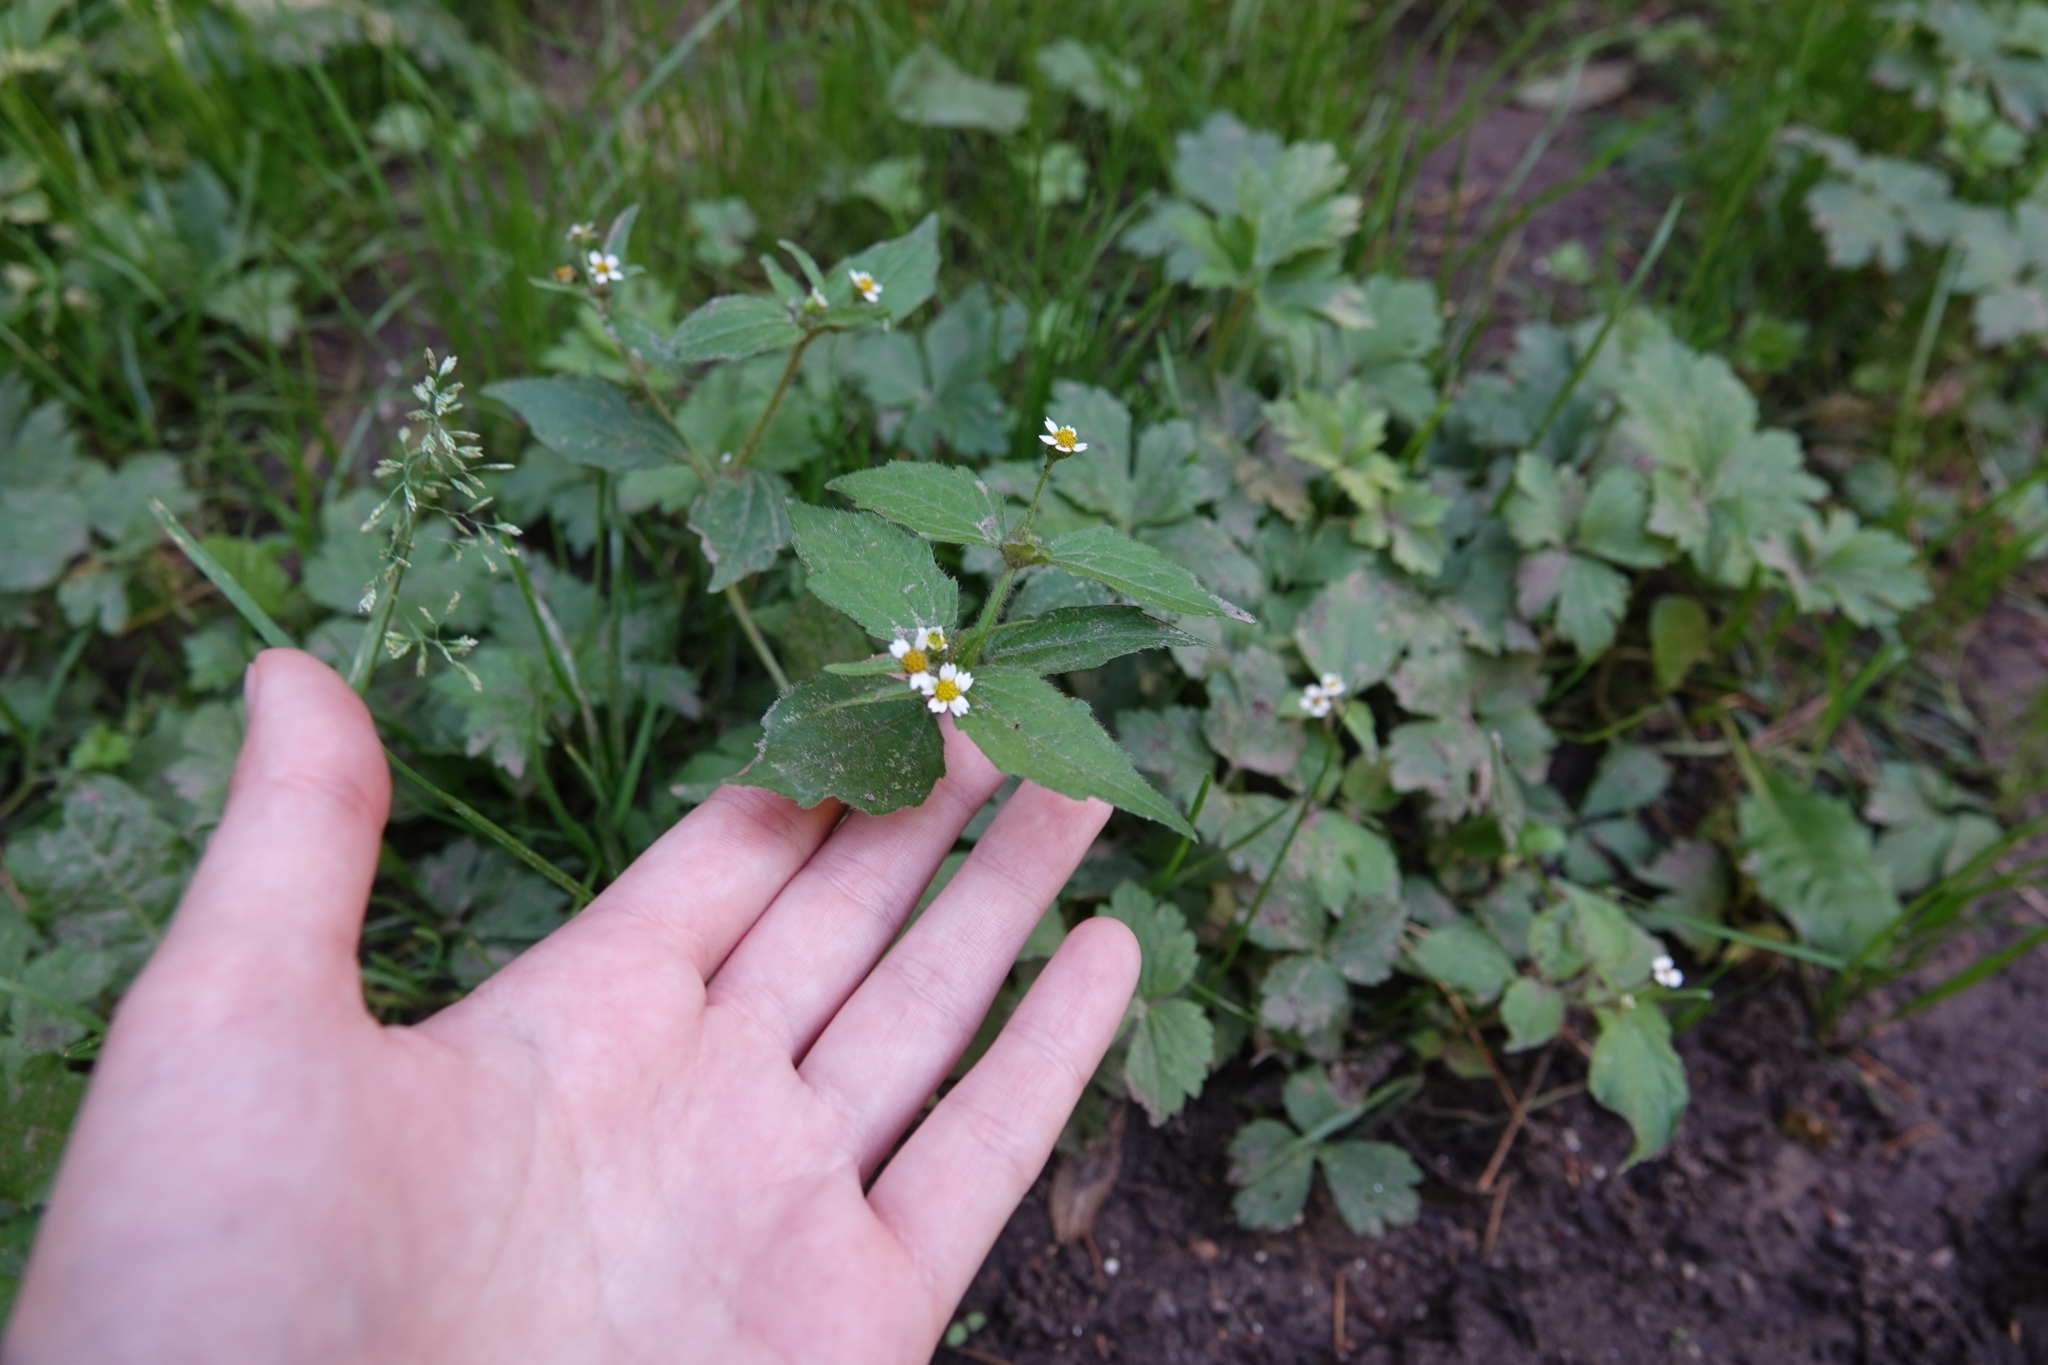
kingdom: Plantae
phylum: Tracheophyta
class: Magnoliopsida
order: Asterales
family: Asteraceae
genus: Galinsoga
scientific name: Galinsoga quadriradiata
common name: Shaggy soldier
